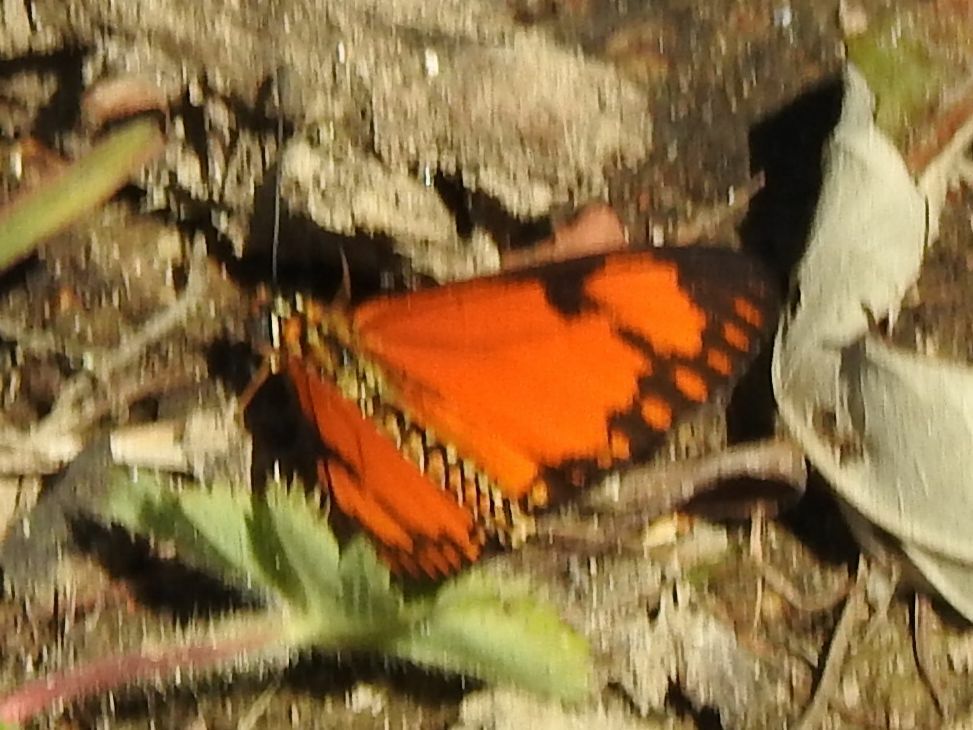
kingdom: Animalia
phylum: Arthropoda
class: Insecta
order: Lepidoptera
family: Nymphalidae
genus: Acraea
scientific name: Acraea Telchinia serena
